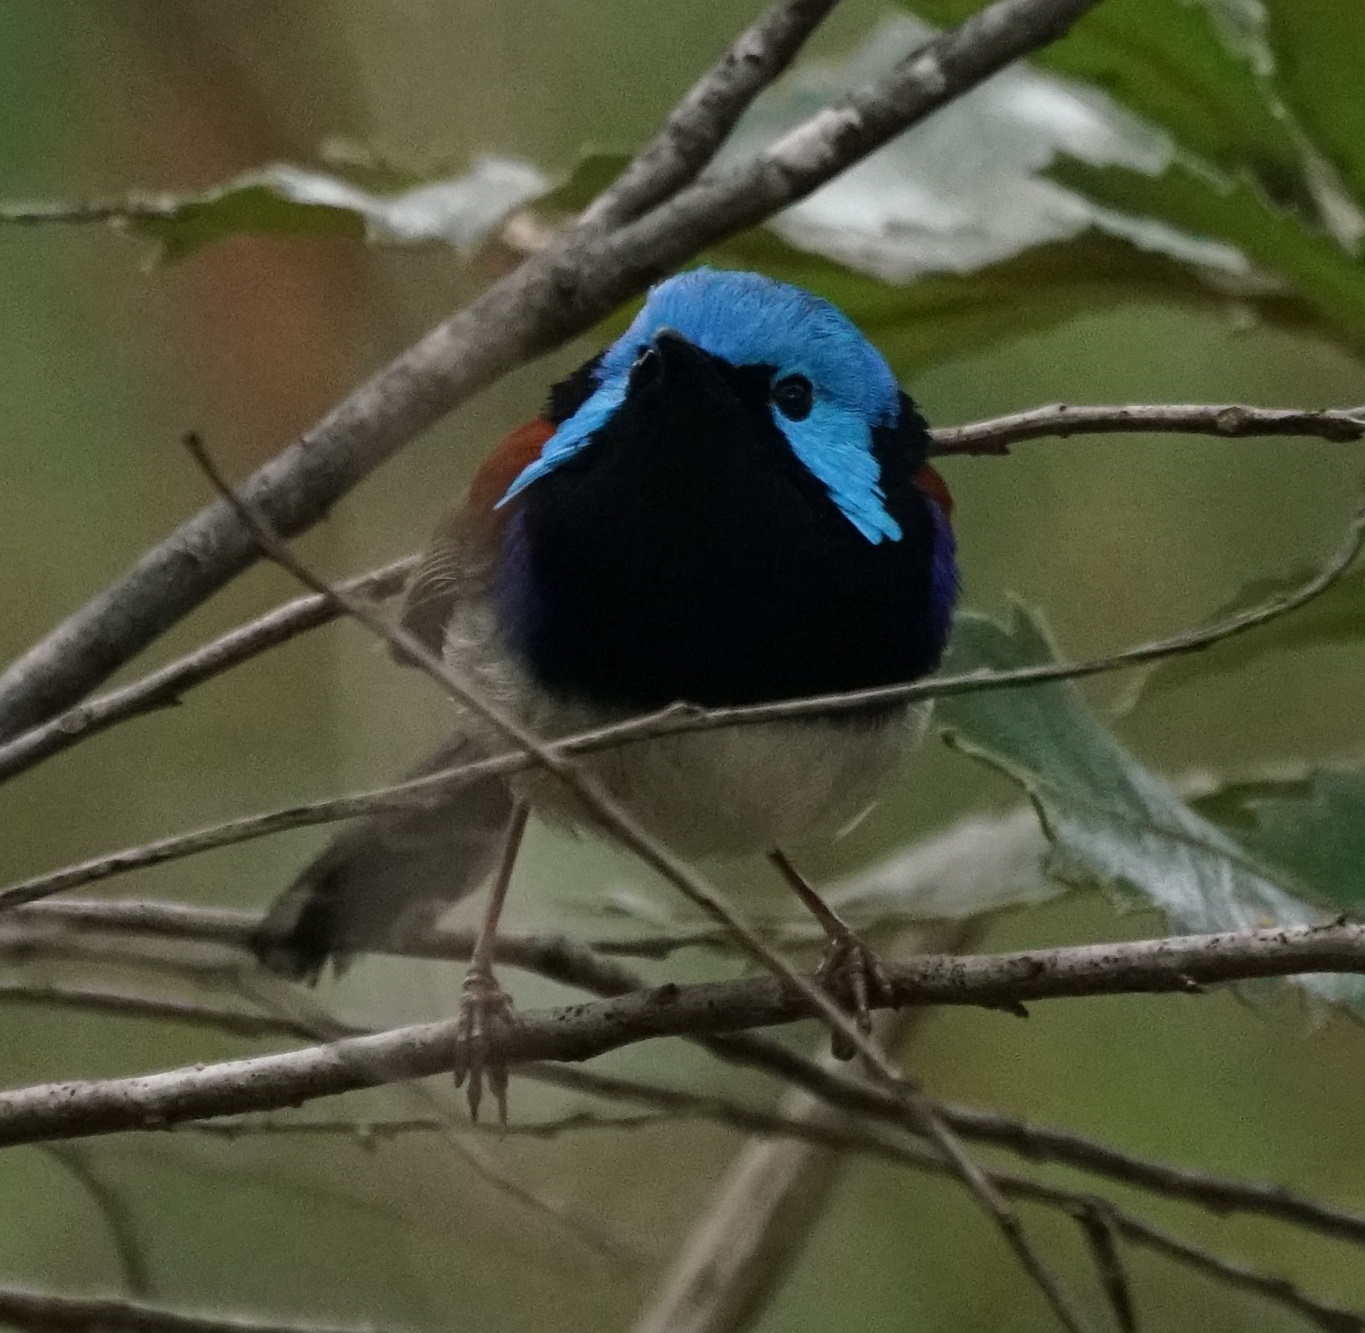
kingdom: Animalia
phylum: Chordata
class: Aves
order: Passeriformes
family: Maluridae
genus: Malurus
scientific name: Malurus lamberti
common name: Variegated fairywren
